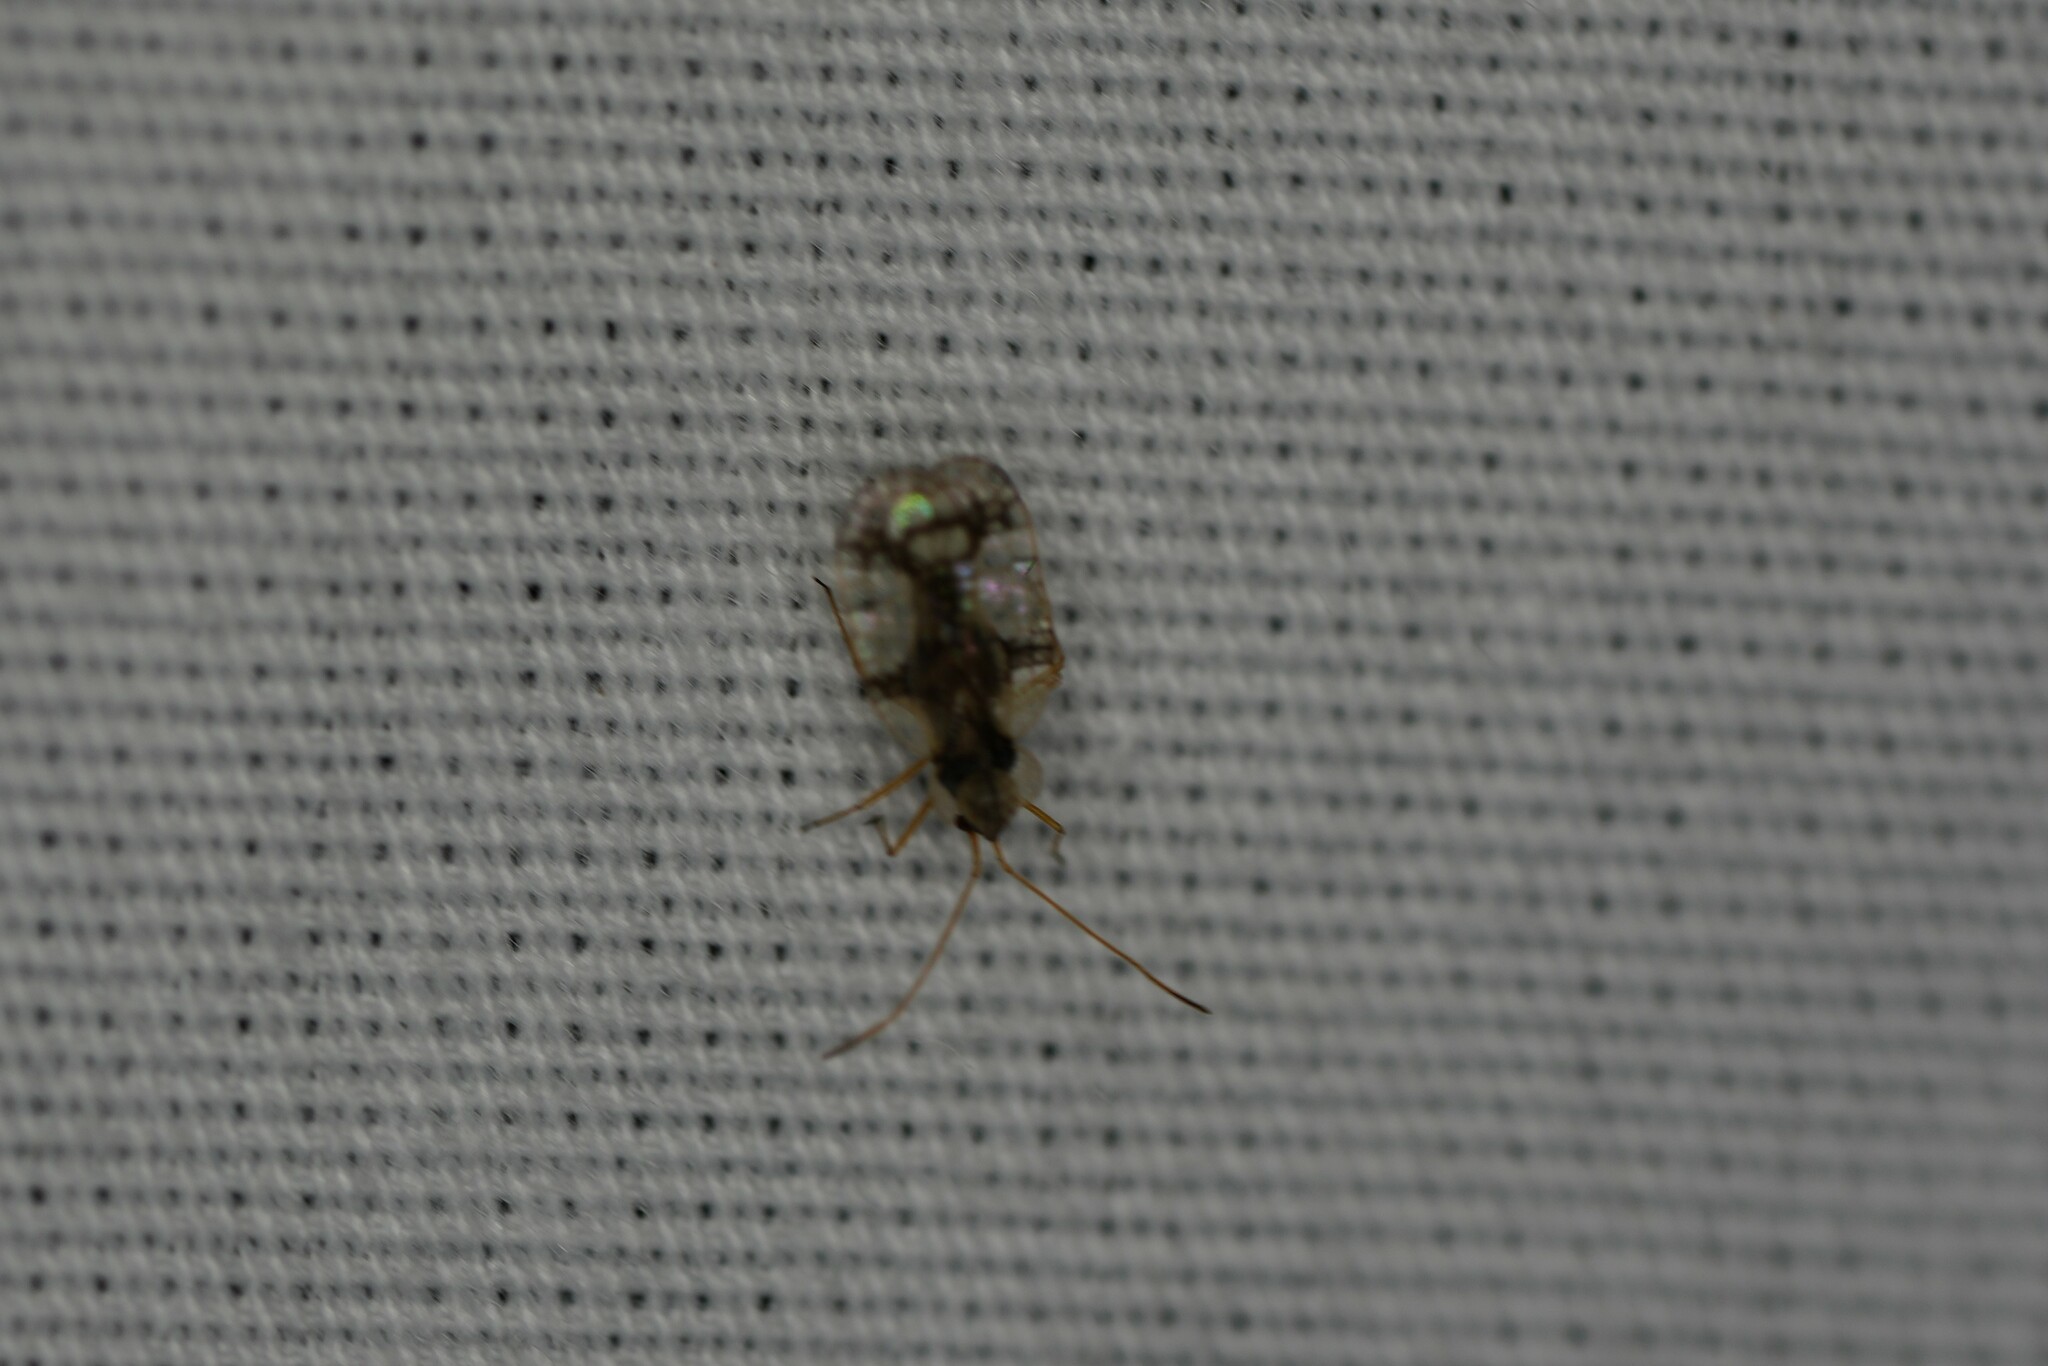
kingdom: Animalia
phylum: Arthropoda
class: Insecta
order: Hemiptera
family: Tingidae
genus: Stephanitis
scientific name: Stephanitis pyrioides
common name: Azalea lace bug
